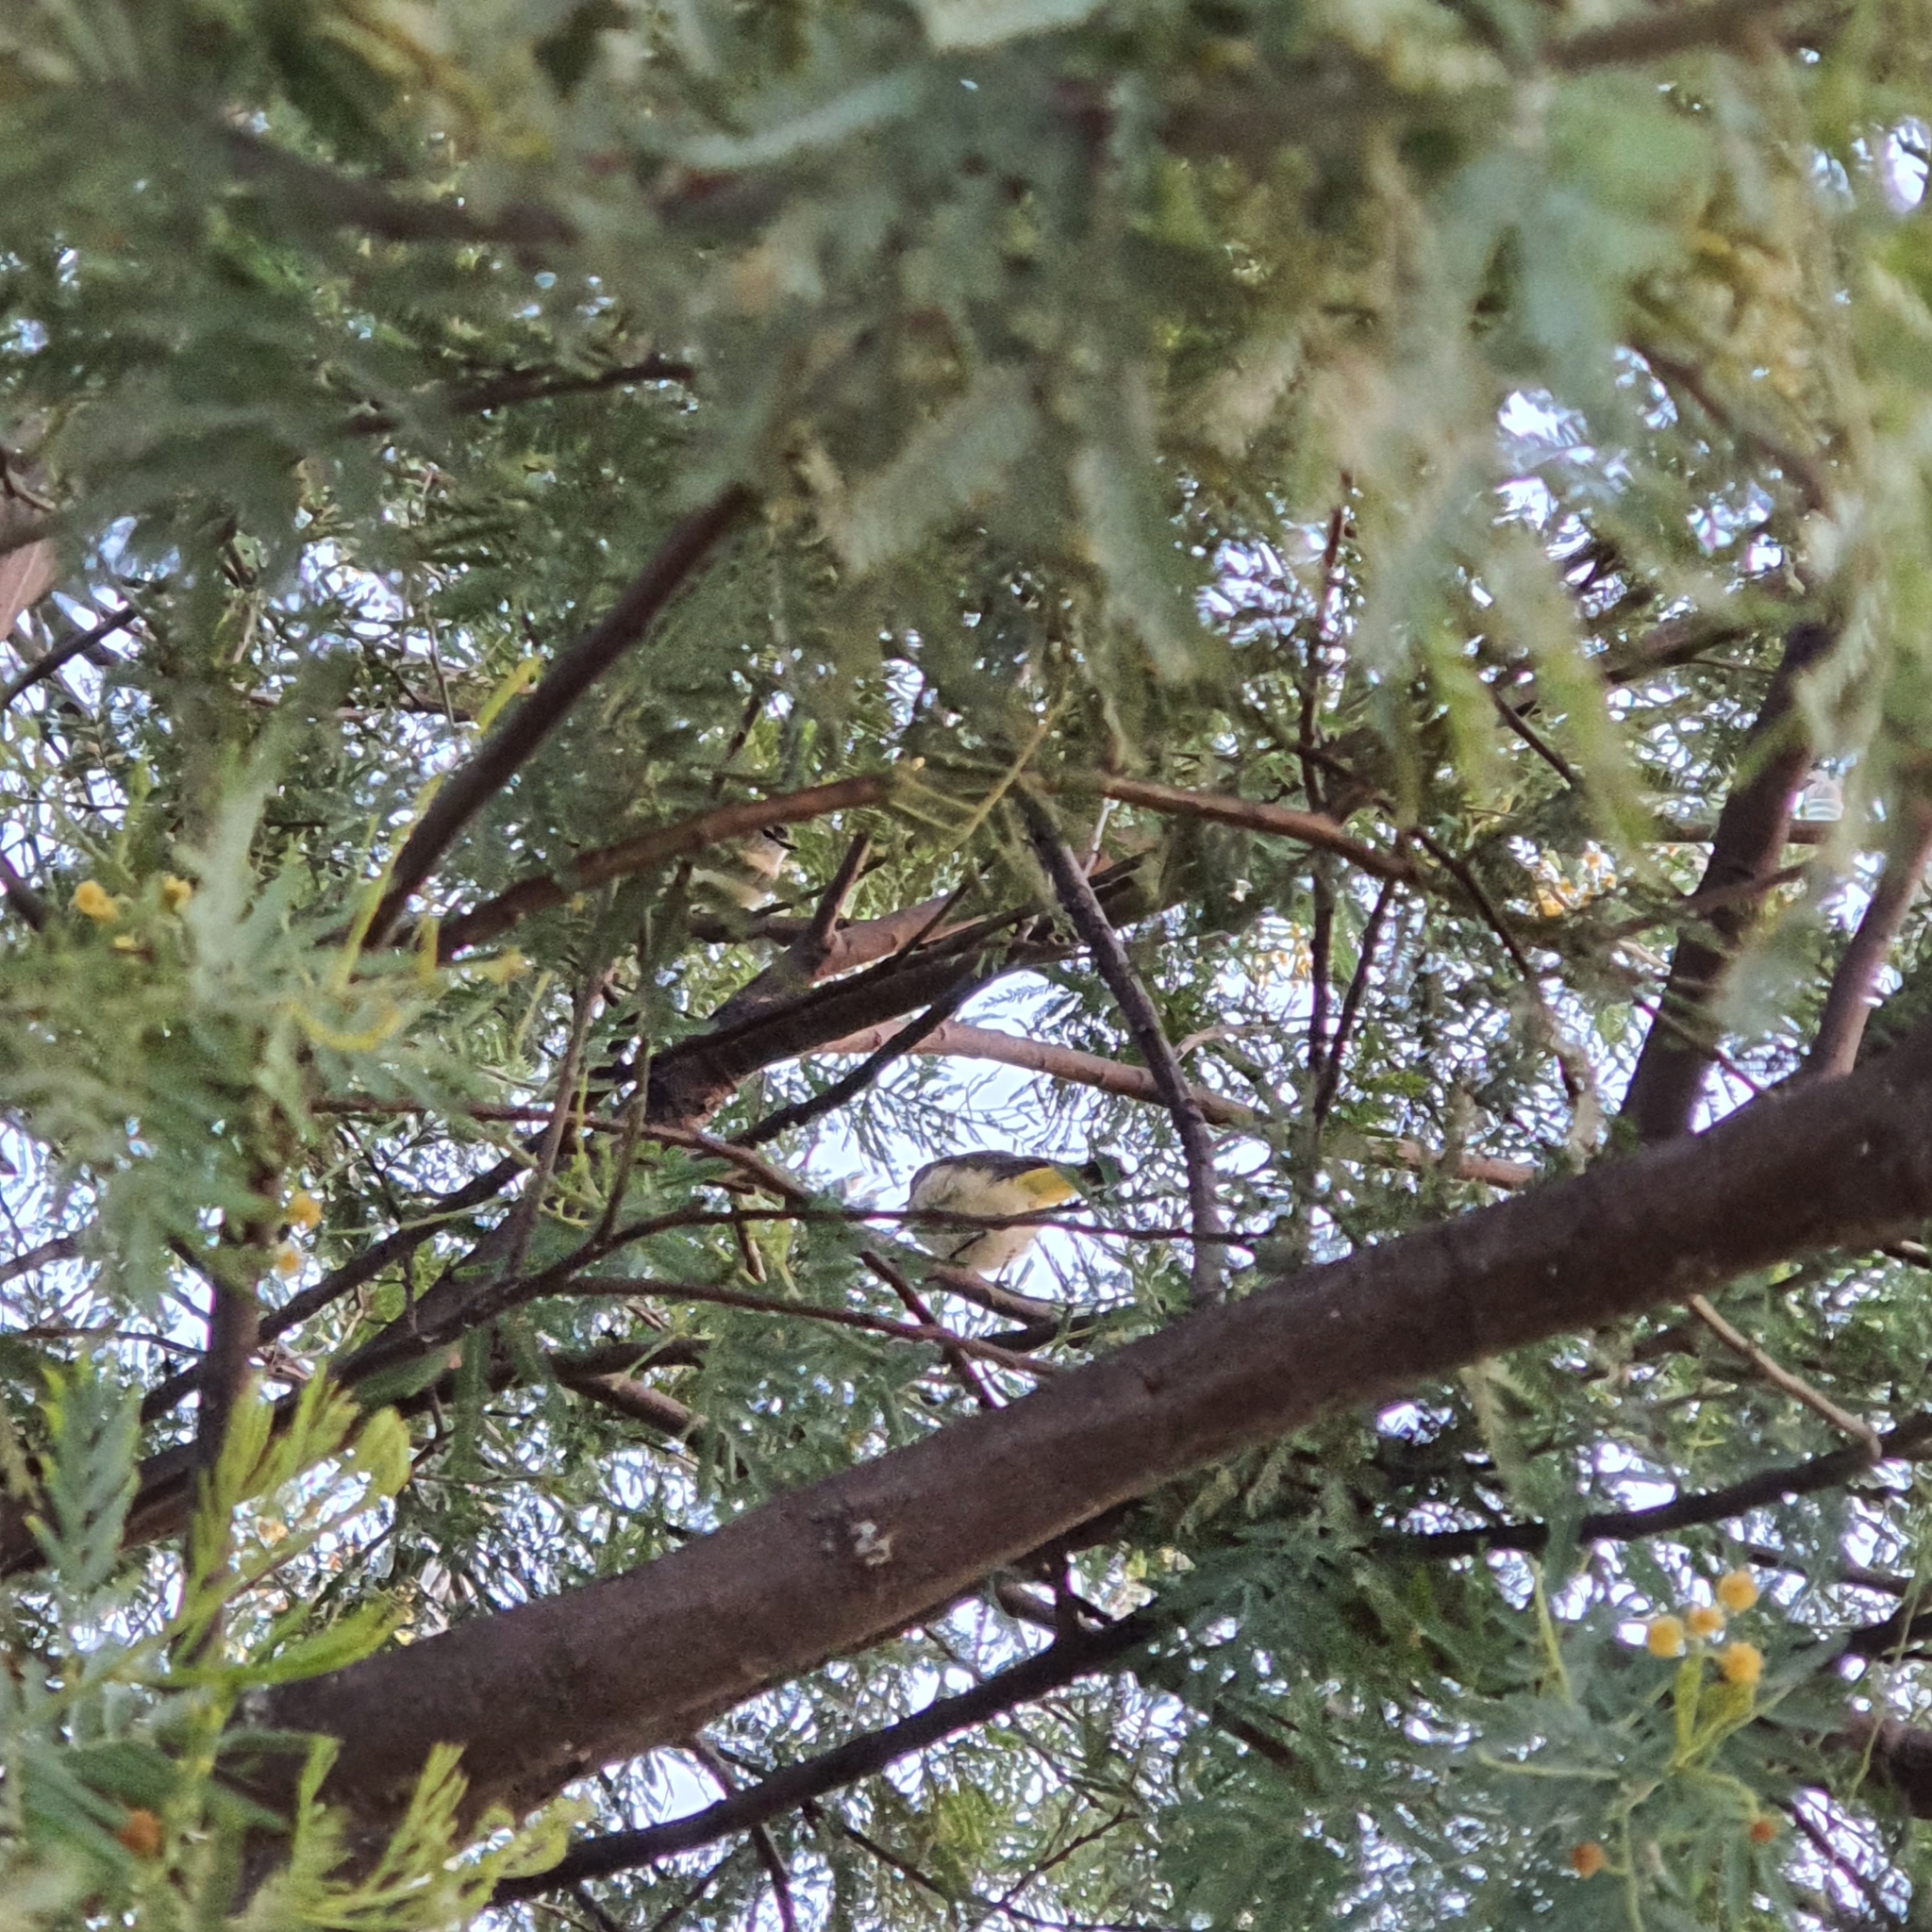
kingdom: Animalia
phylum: Chordata
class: Aves
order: Passeriformes
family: Acanthizidae
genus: Acanthiza
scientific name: Acanthiza chrysorrhoa
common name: Yellow-rumped thornbill
